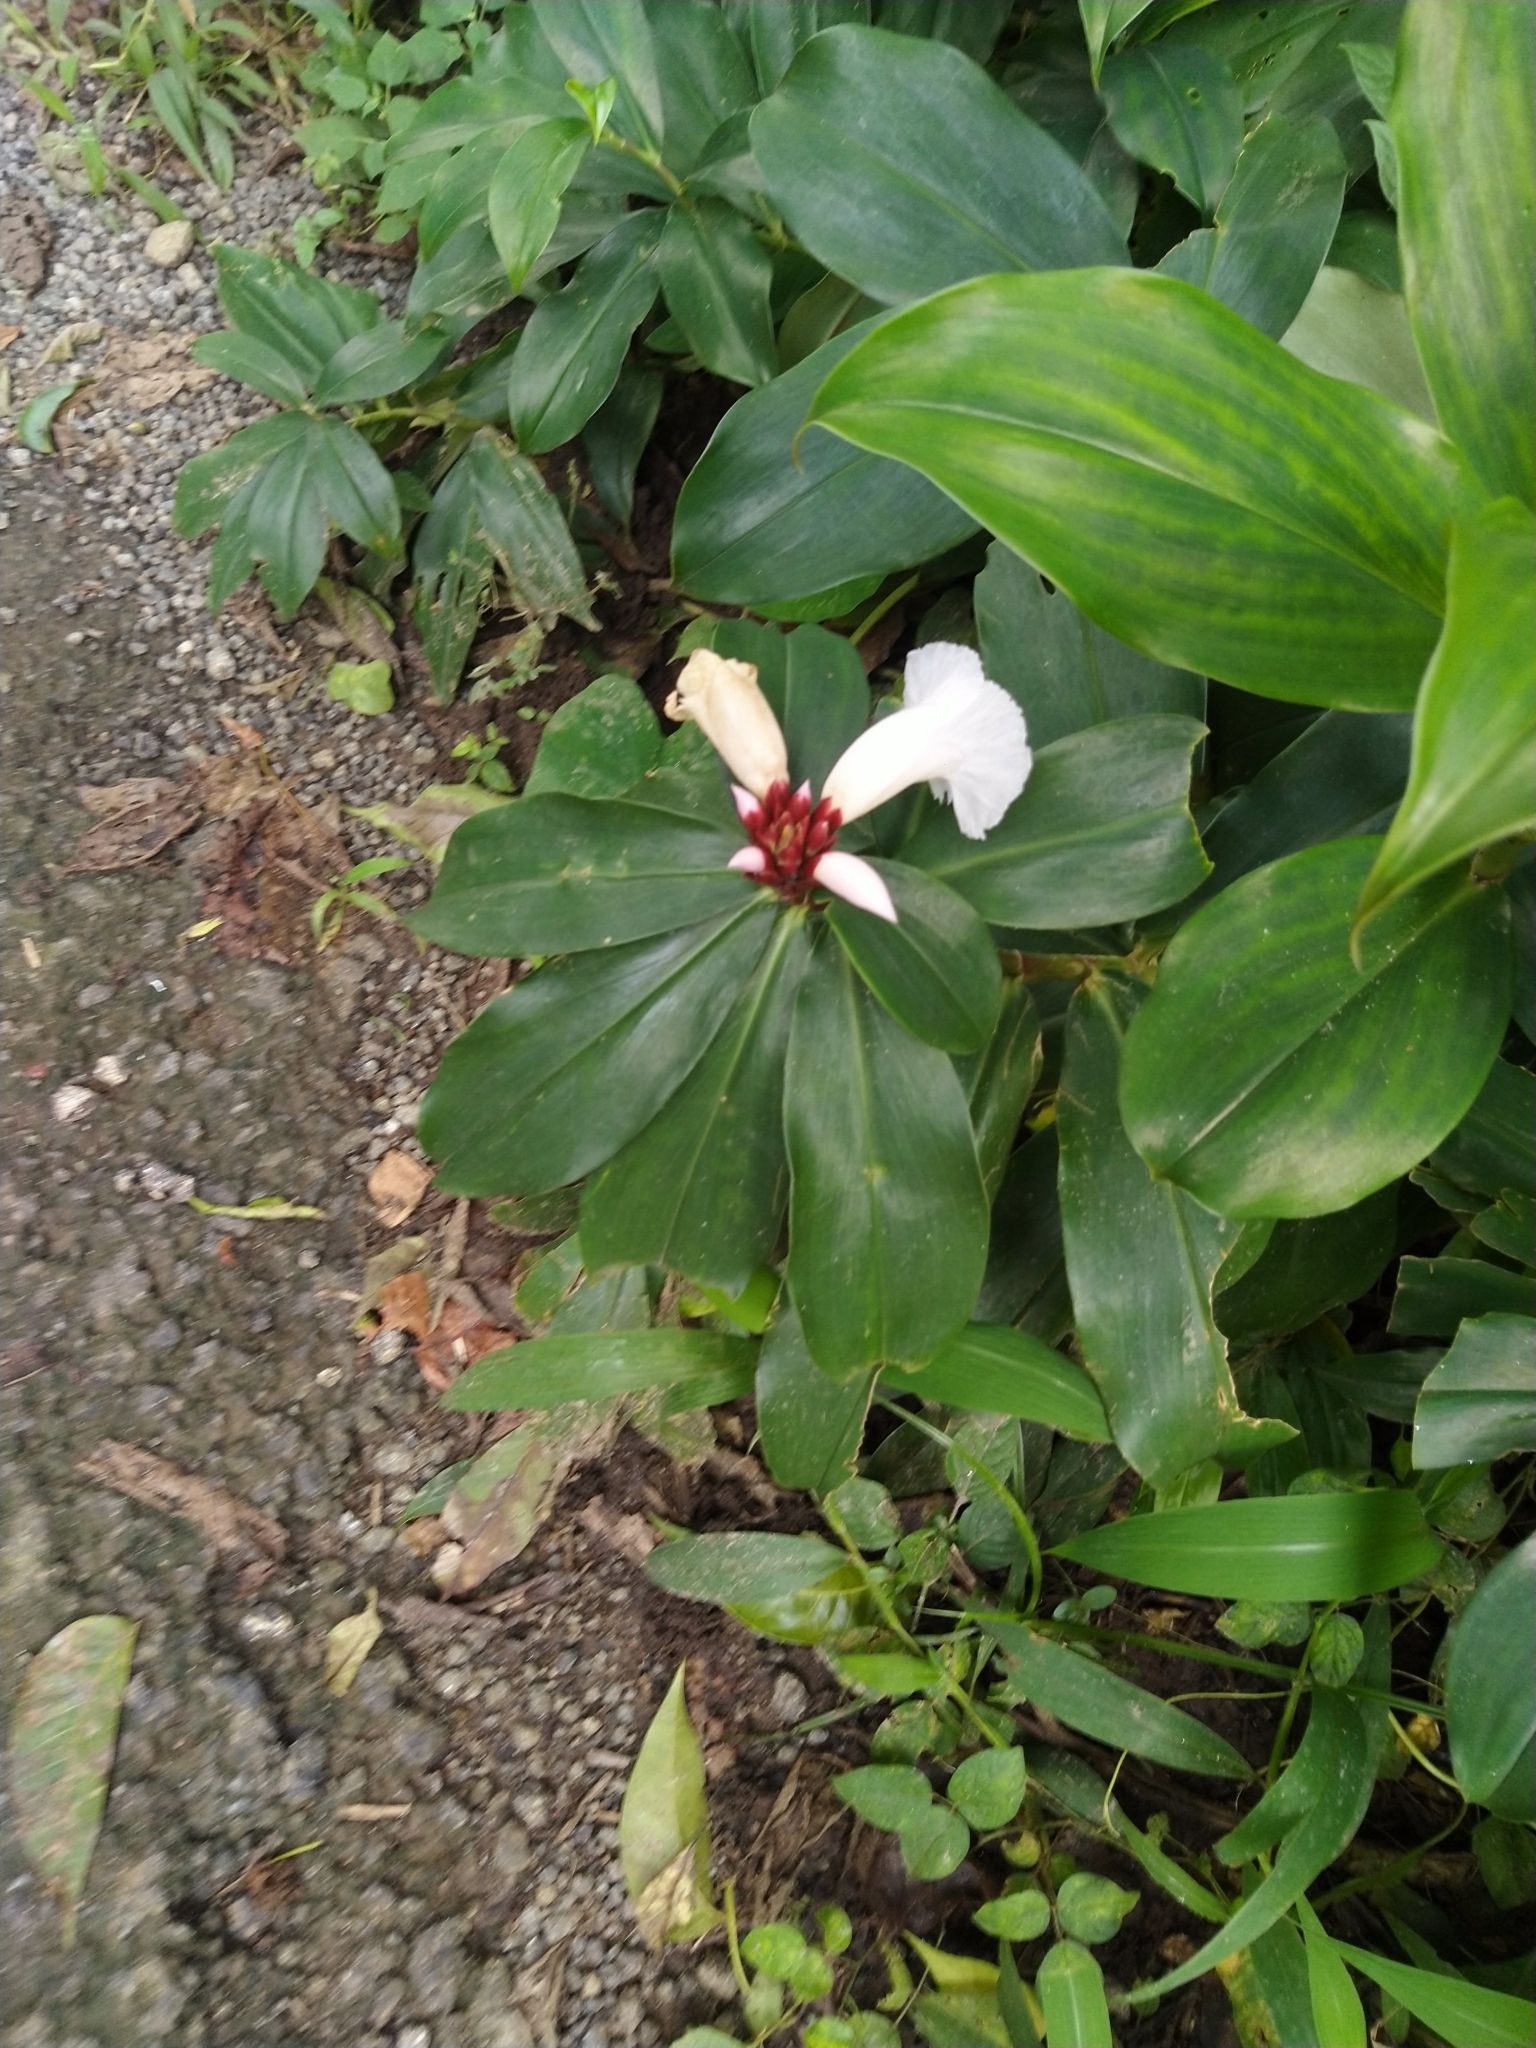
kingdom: Plantae
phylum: Tracheophyta
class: Liliopsida
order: Zingiberales
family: Costaceae
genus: Hellenia
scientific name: Hellenia speciosa
